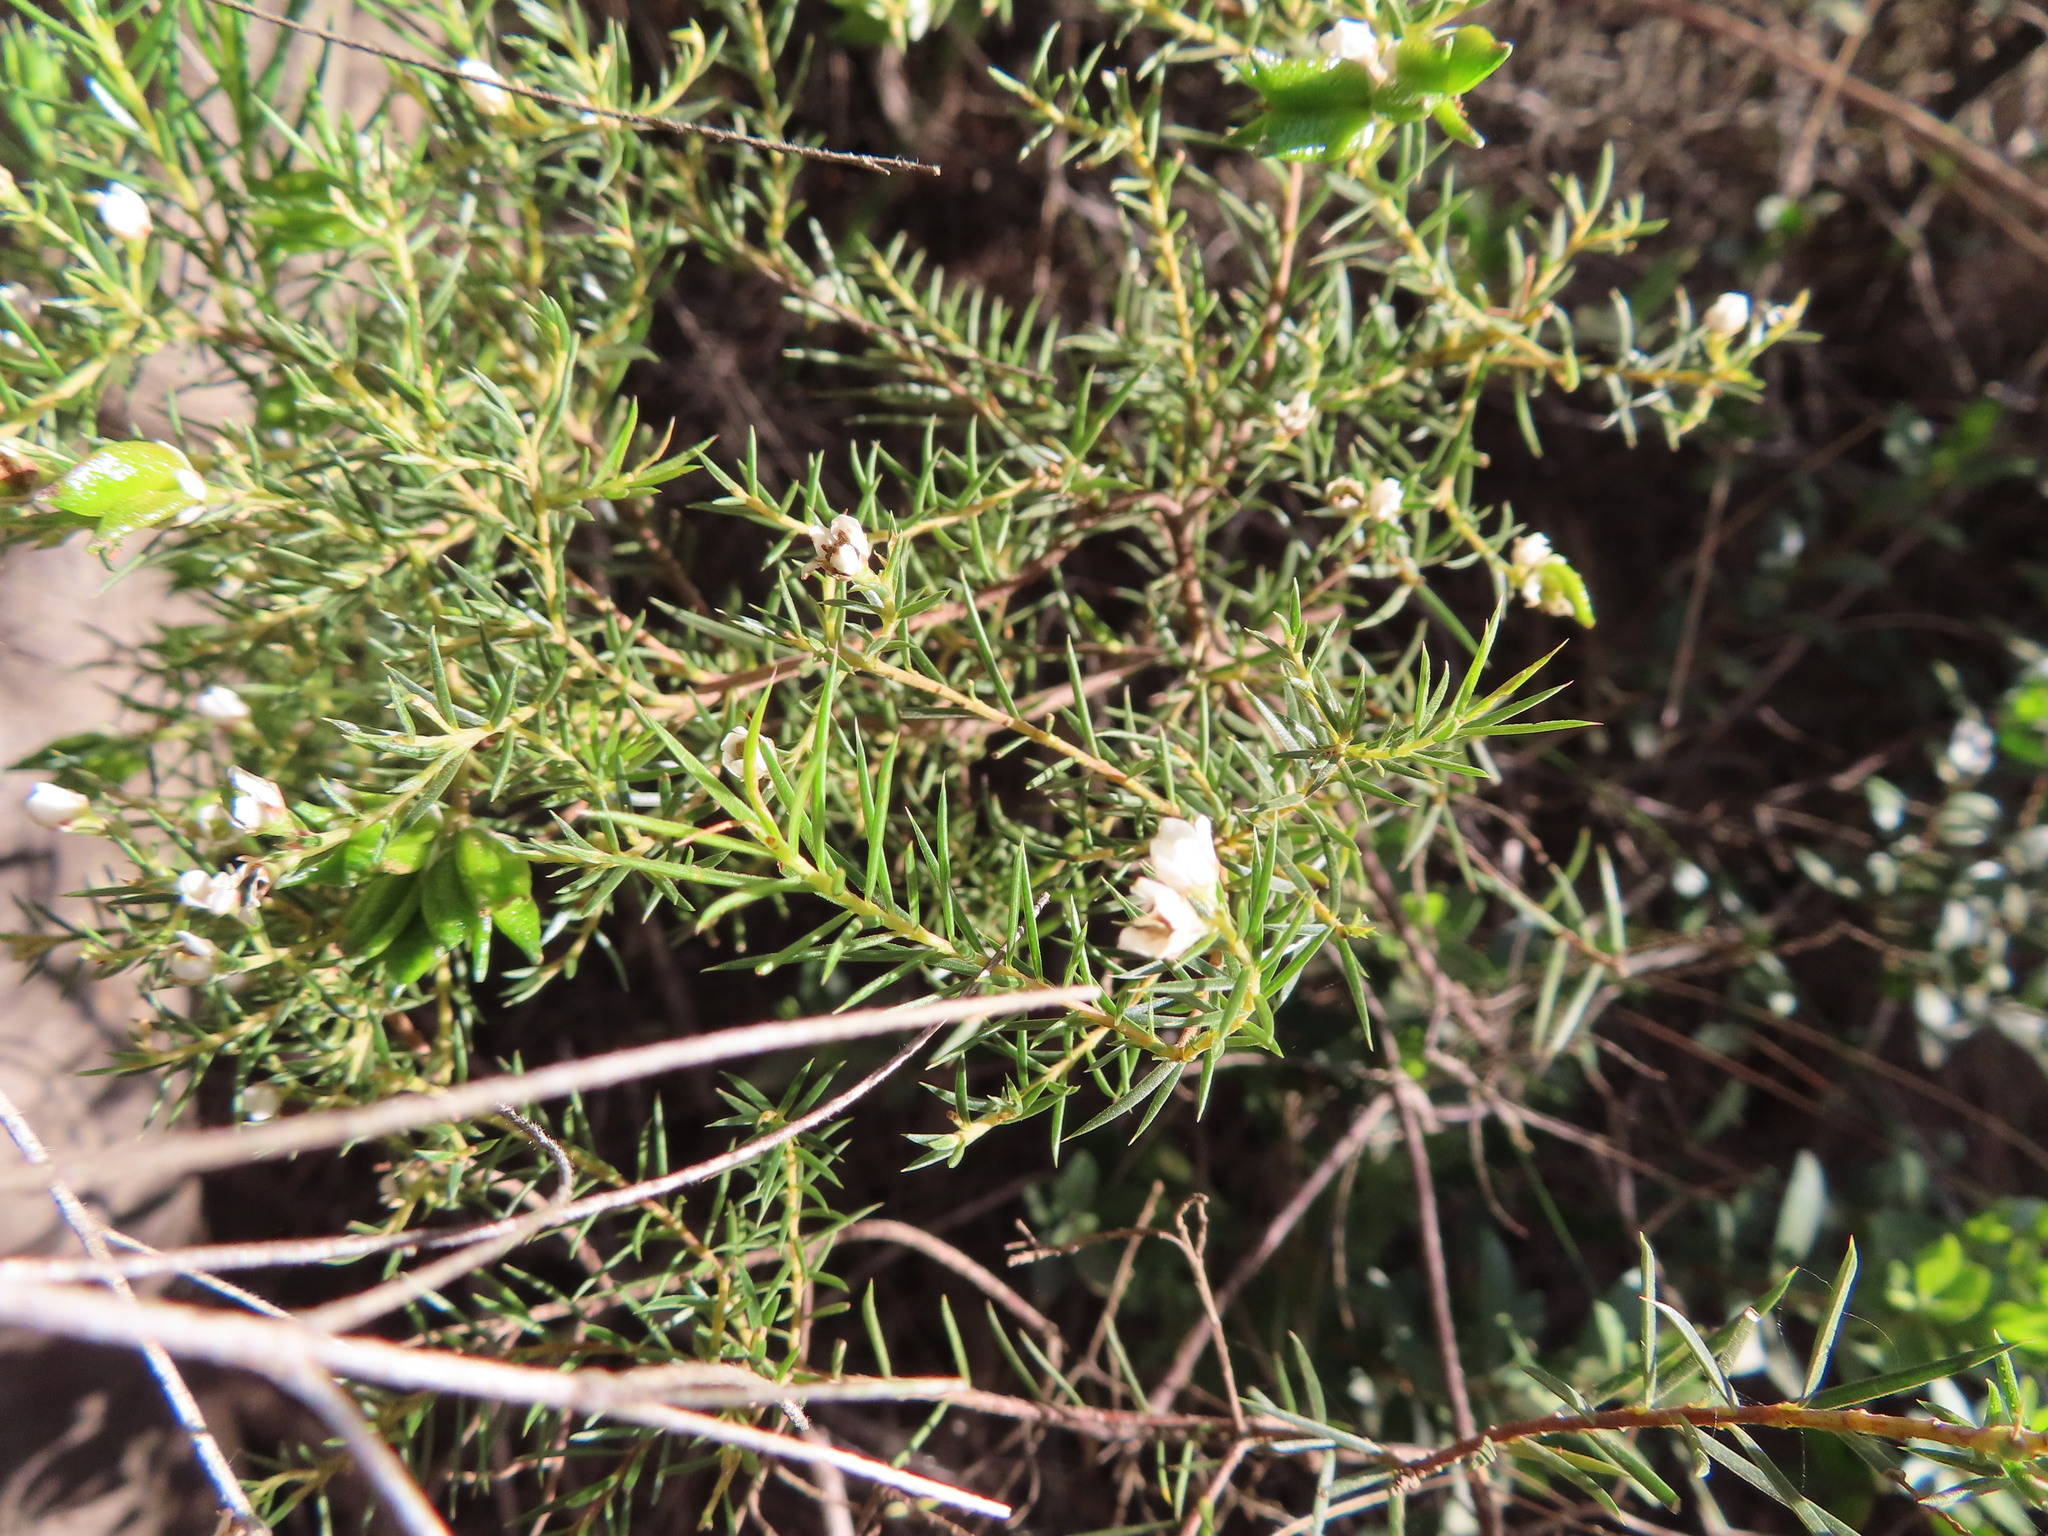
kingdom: Plantae
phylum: Tracheophyta
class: Magnoliopsida
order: Sapindales
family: Rutaceae
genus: Diosma
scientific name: Diosma hirsuta
